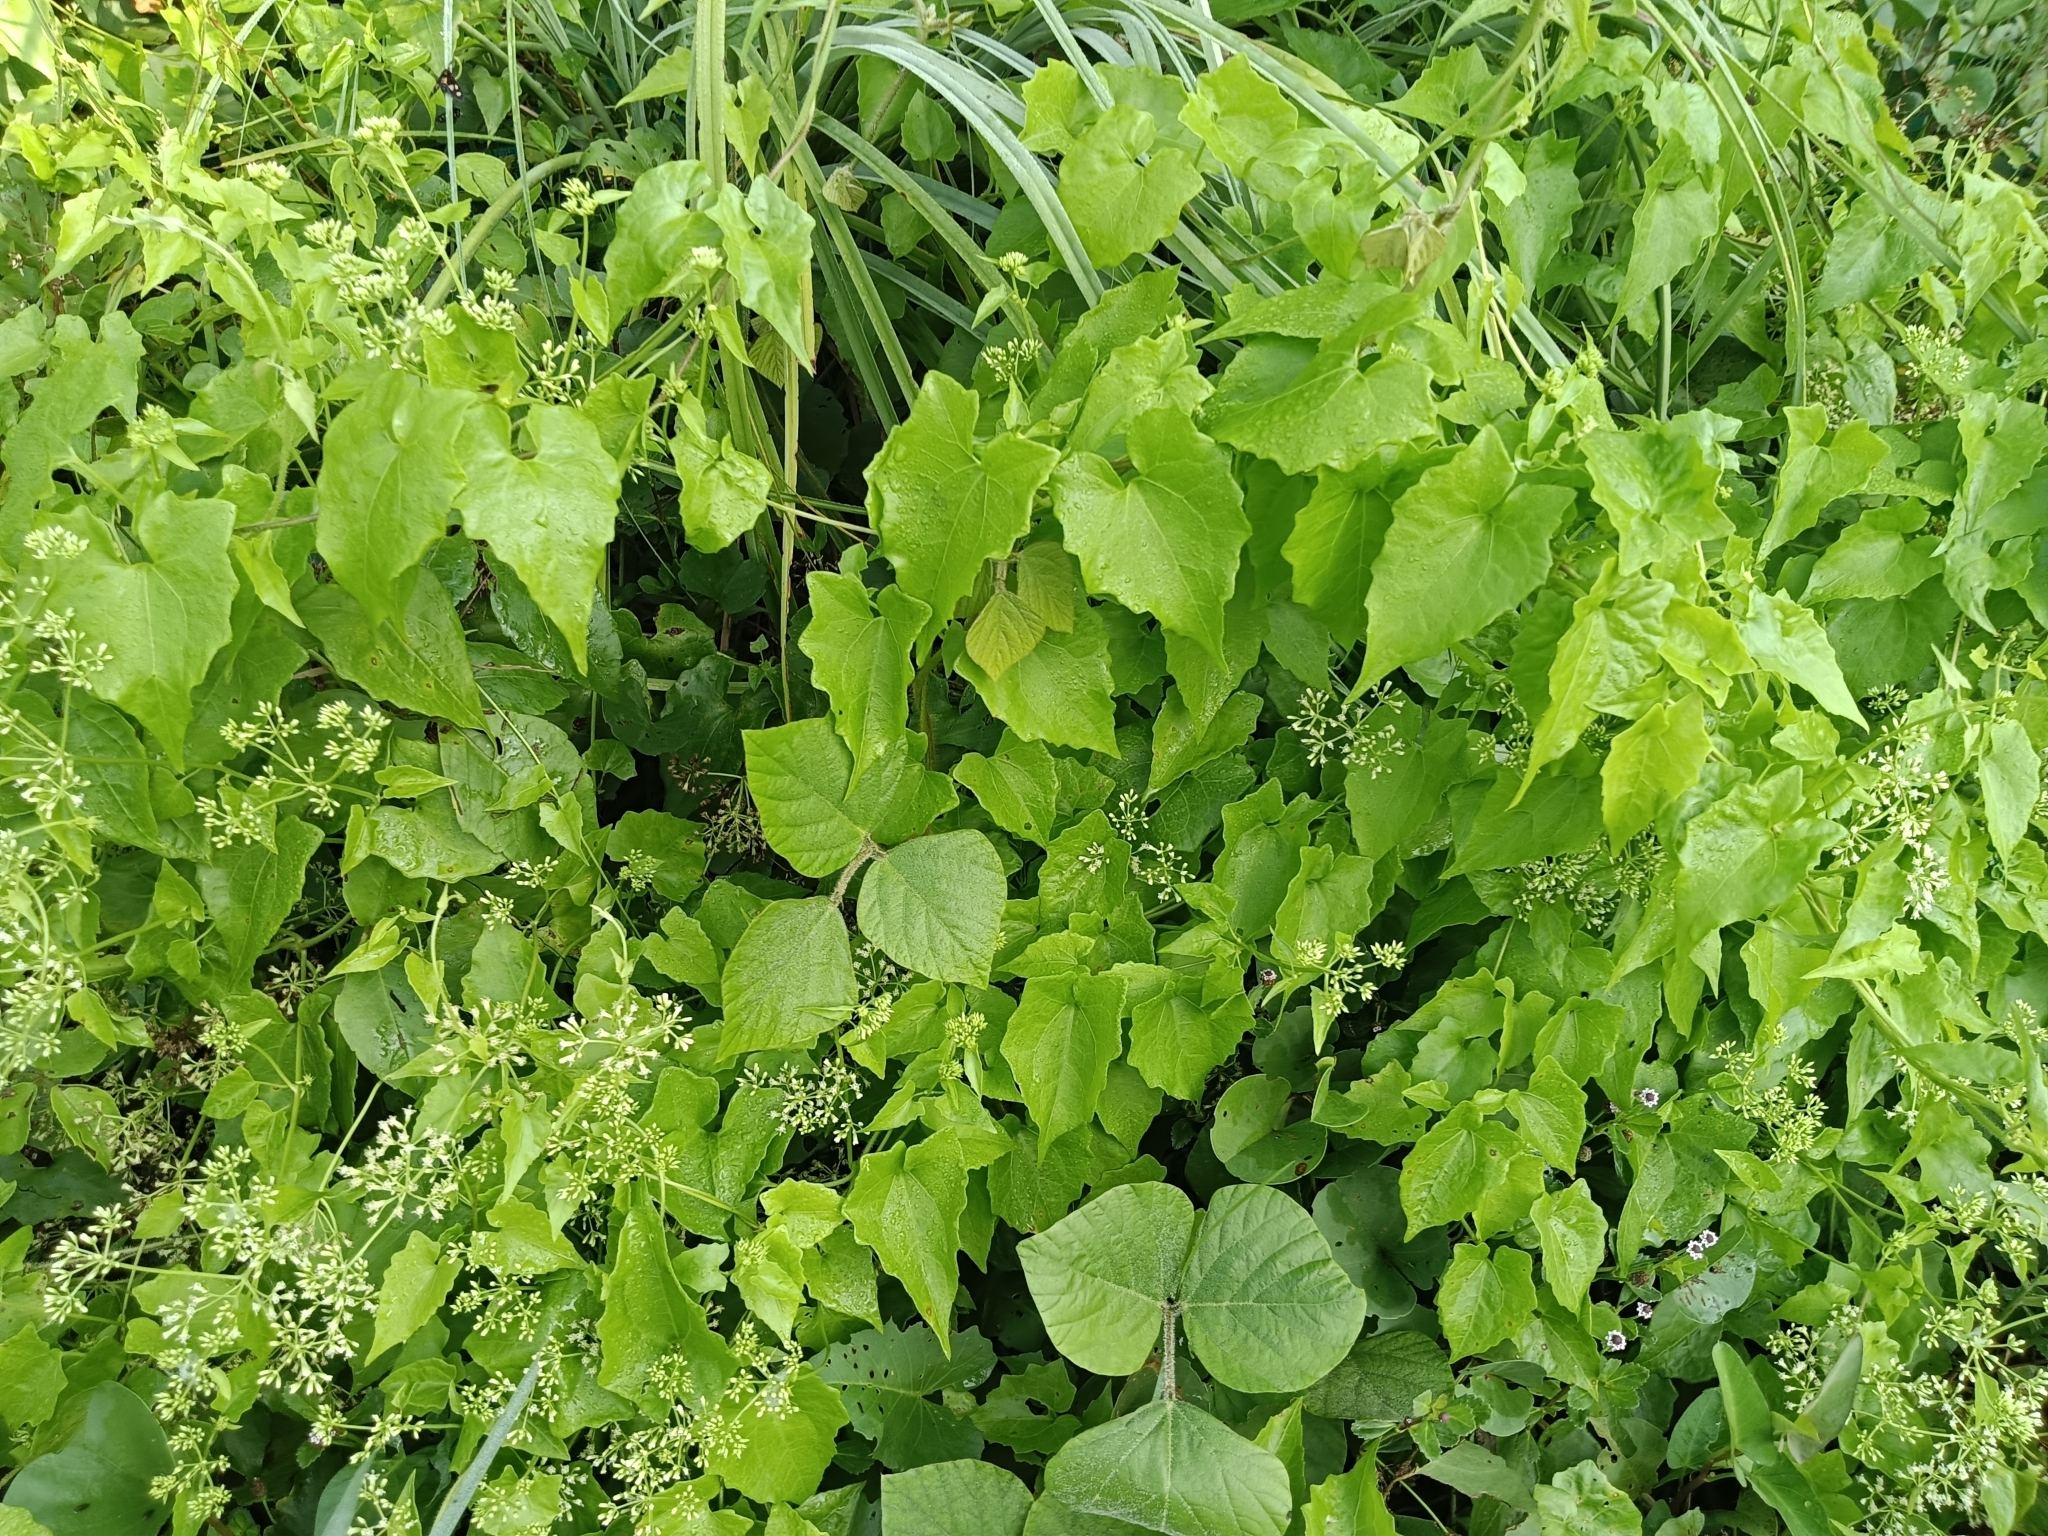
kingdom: Plantae
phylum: Tracheophyta
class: Magnoliopsida
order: Asterales
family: Asteraceae
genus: Mikania
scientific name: Mikania micrantha
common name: Mile-a-minute
